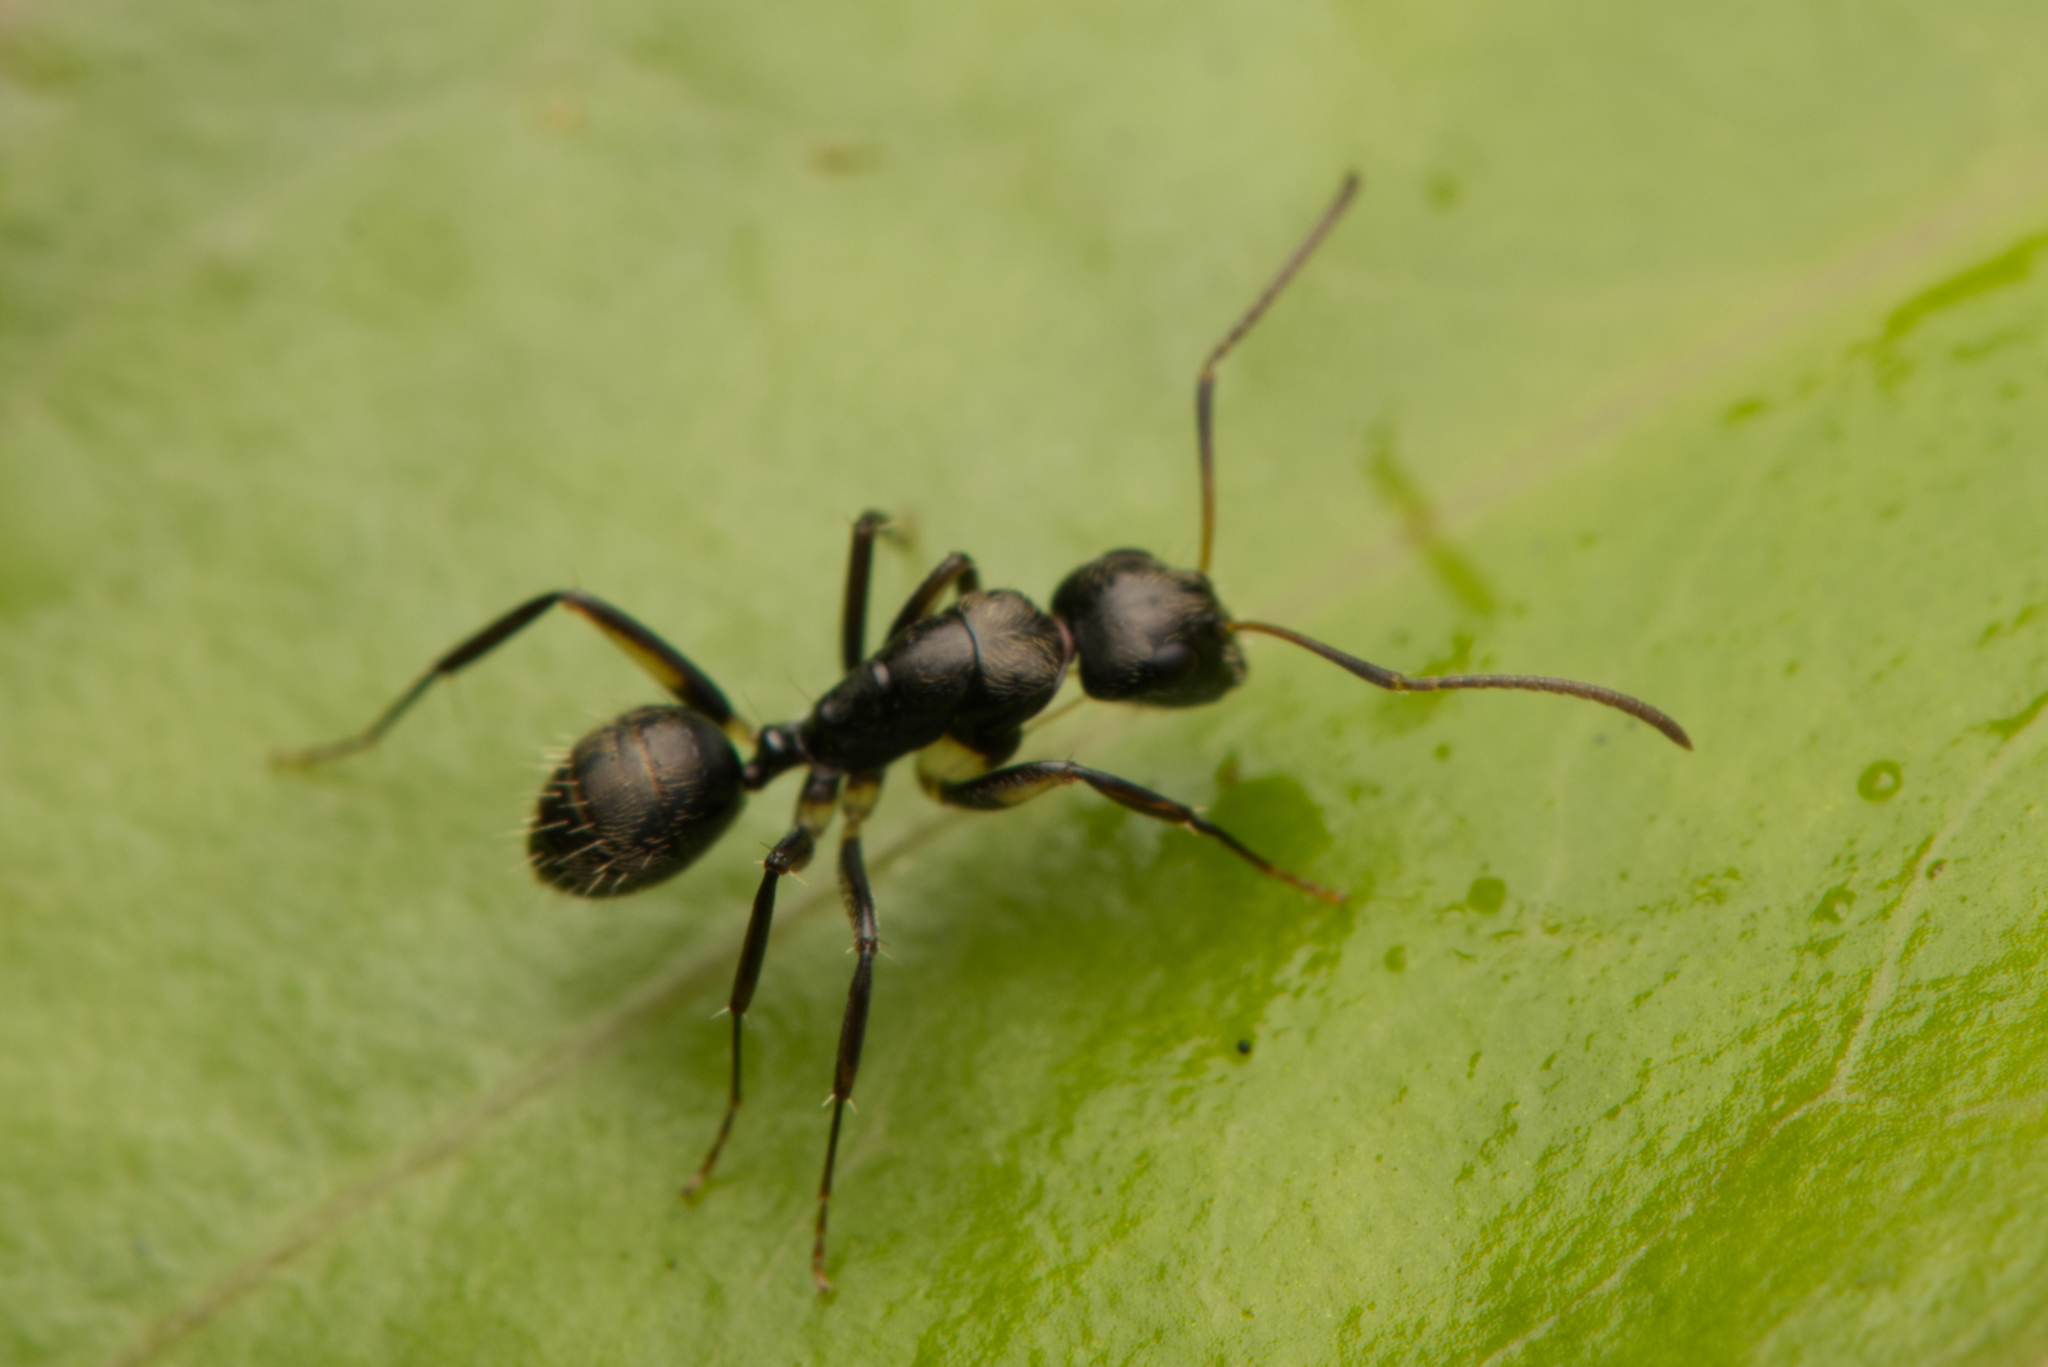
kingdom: Animalia
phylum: Arthropoda
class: Insecta
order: Hymenoptera
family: Formicidae
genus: Camponotus
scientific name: Camponotus froggatti
